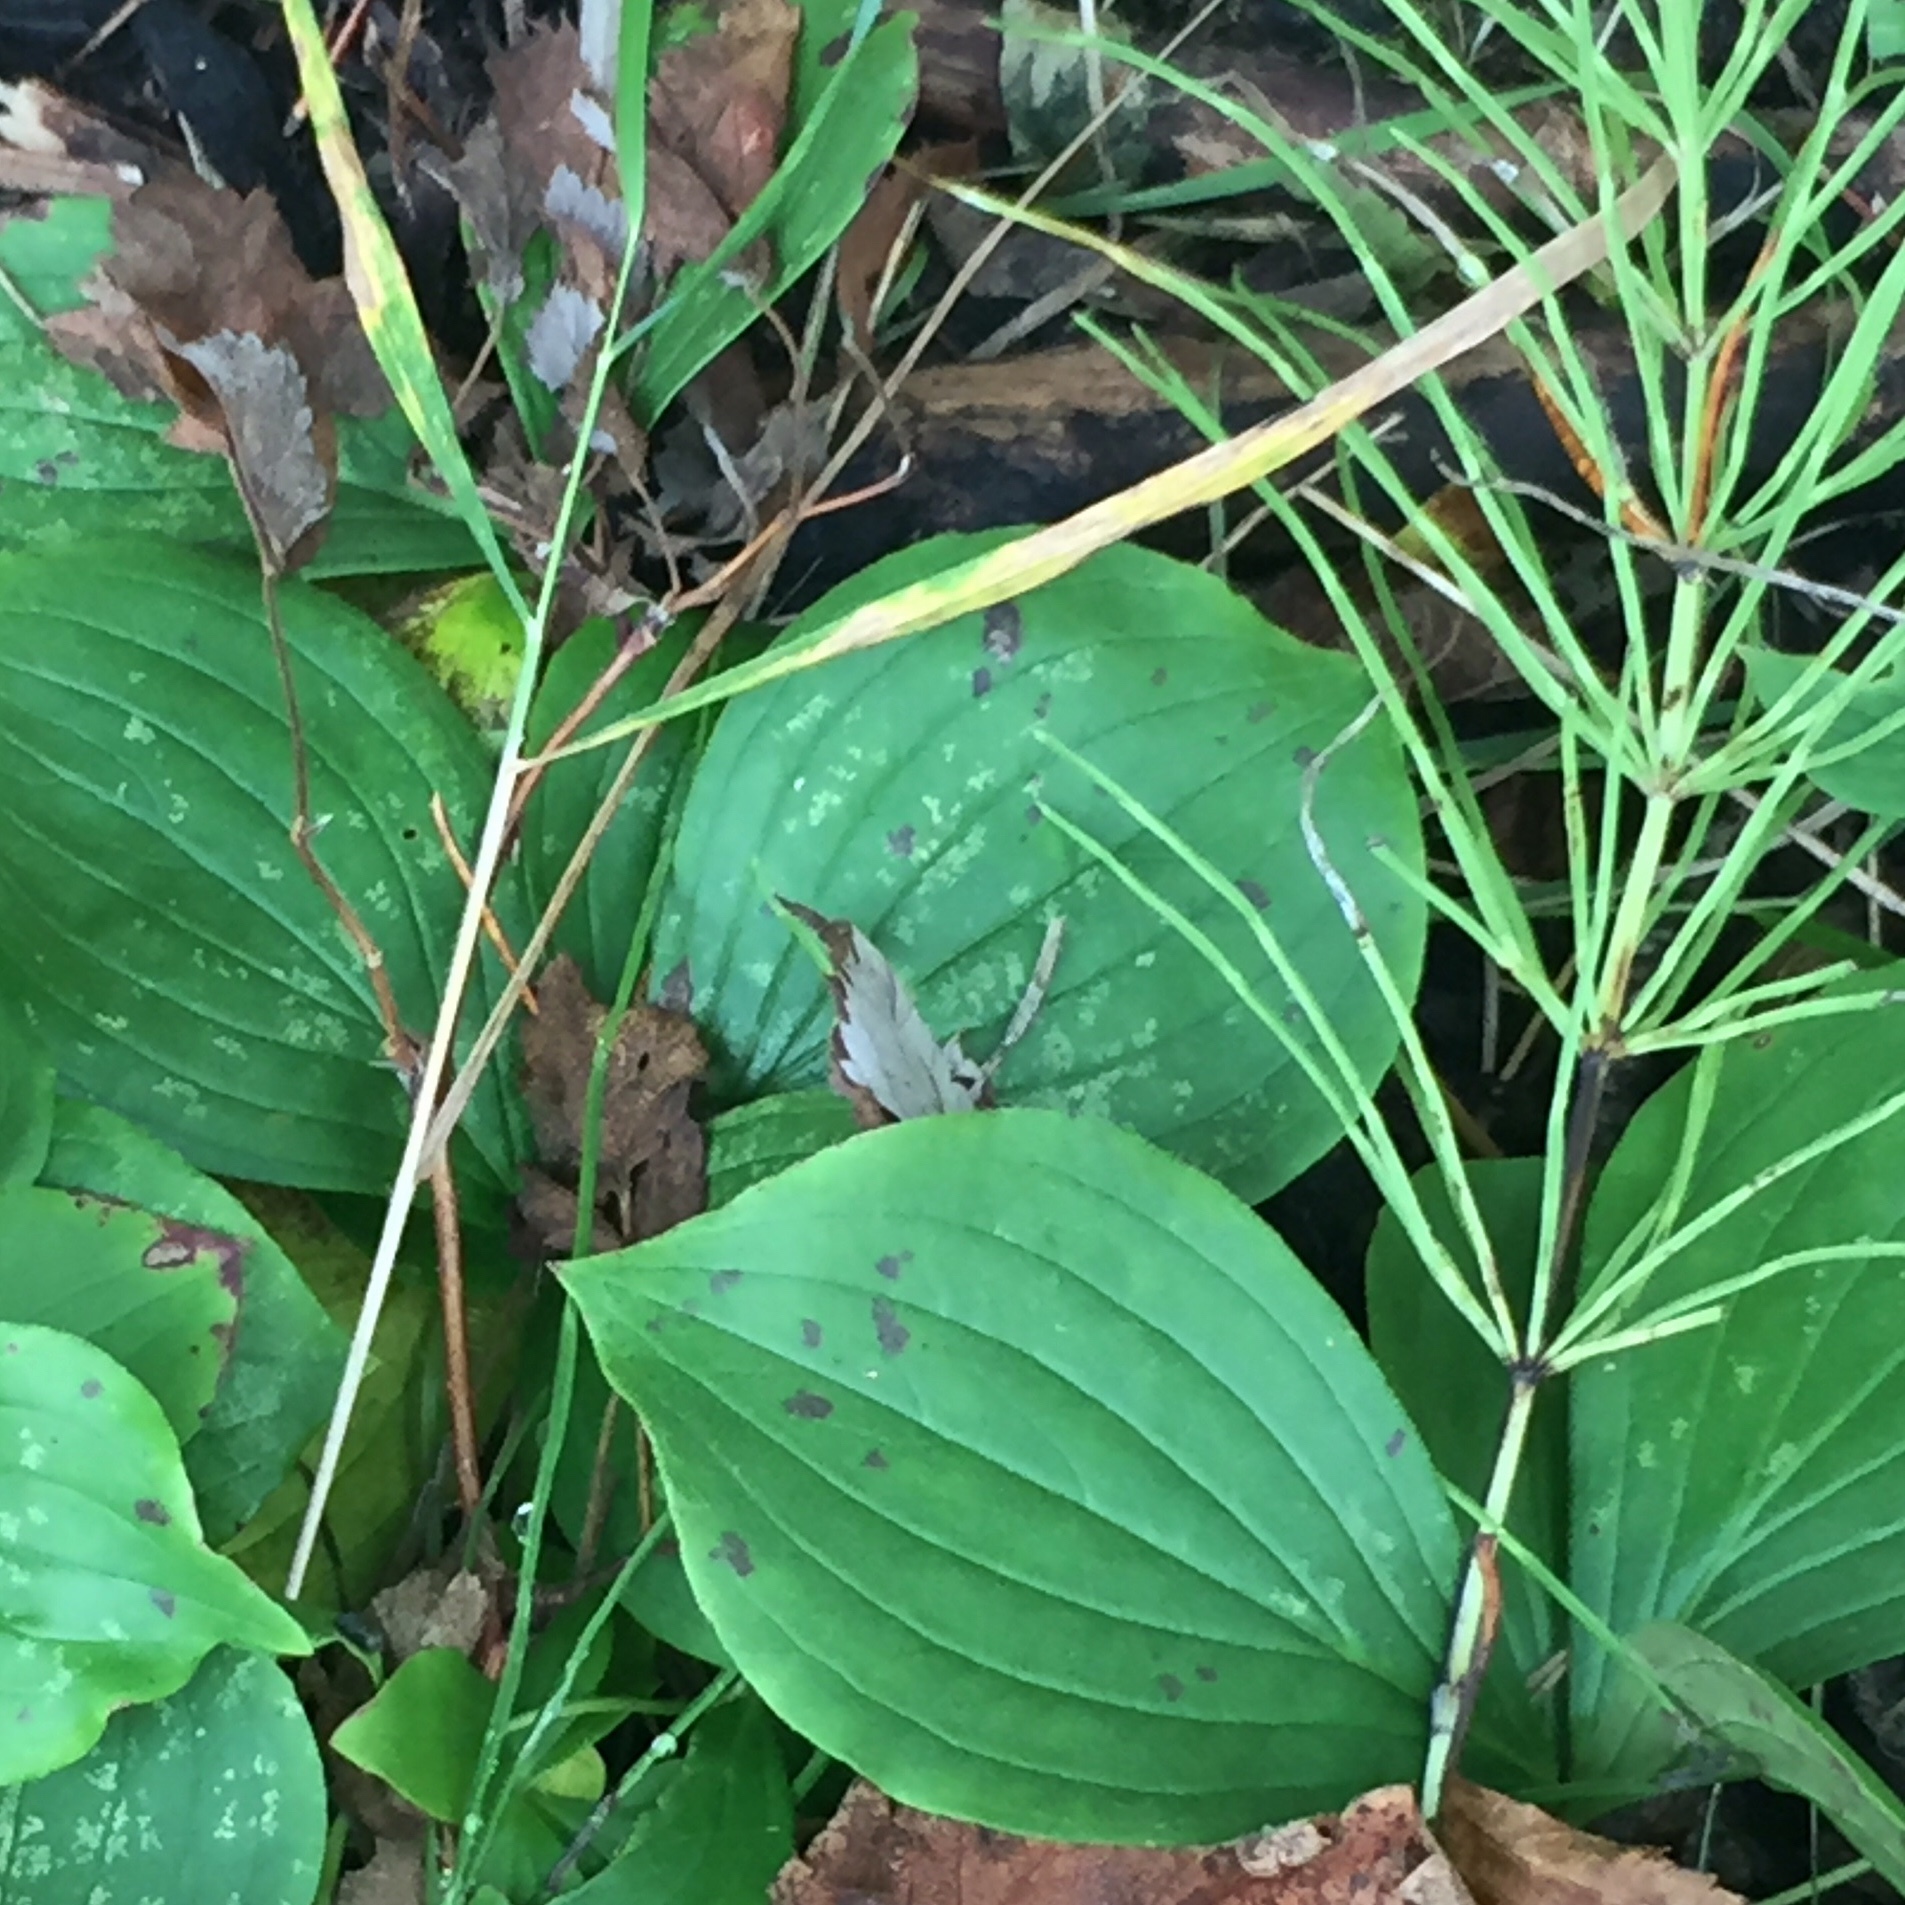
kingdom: Plantae
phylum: Tracheophyta
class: Polypodiopsida
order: Equisetales
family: Equisetaceae
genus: Equisetum
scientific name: Equisetum arvense
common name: Field horsetail
